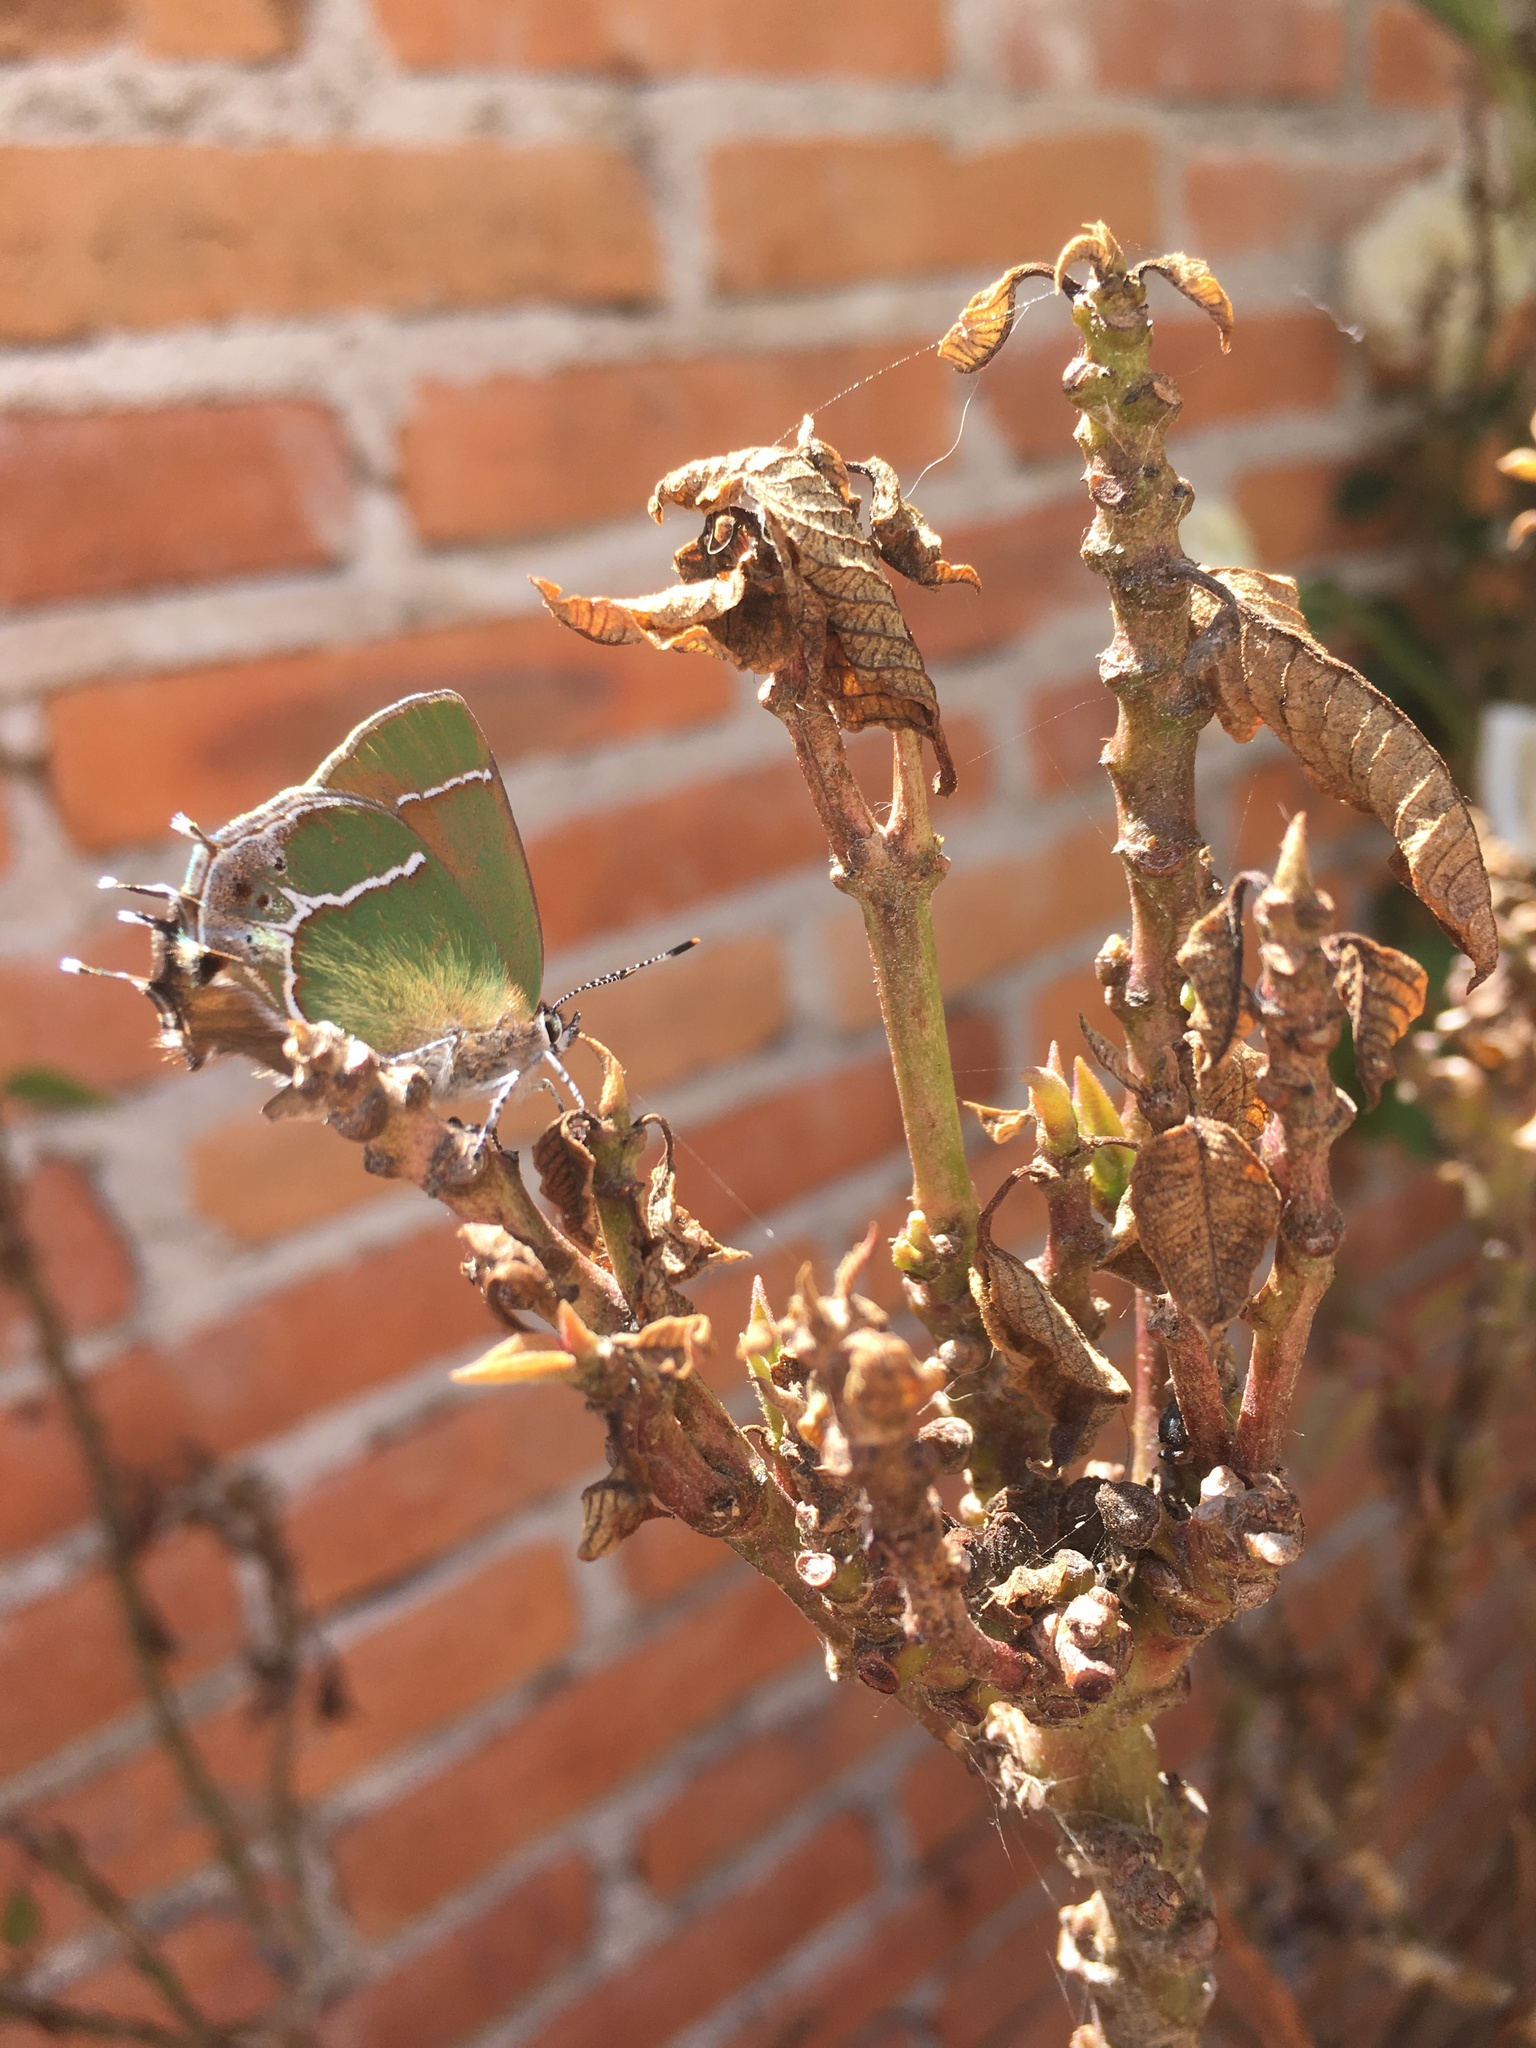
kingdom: Animalia
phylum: Arthropoda
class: Insecta
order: Lepidoptera
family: Lycaenidae
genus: Xamia
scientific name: Xamia xami
